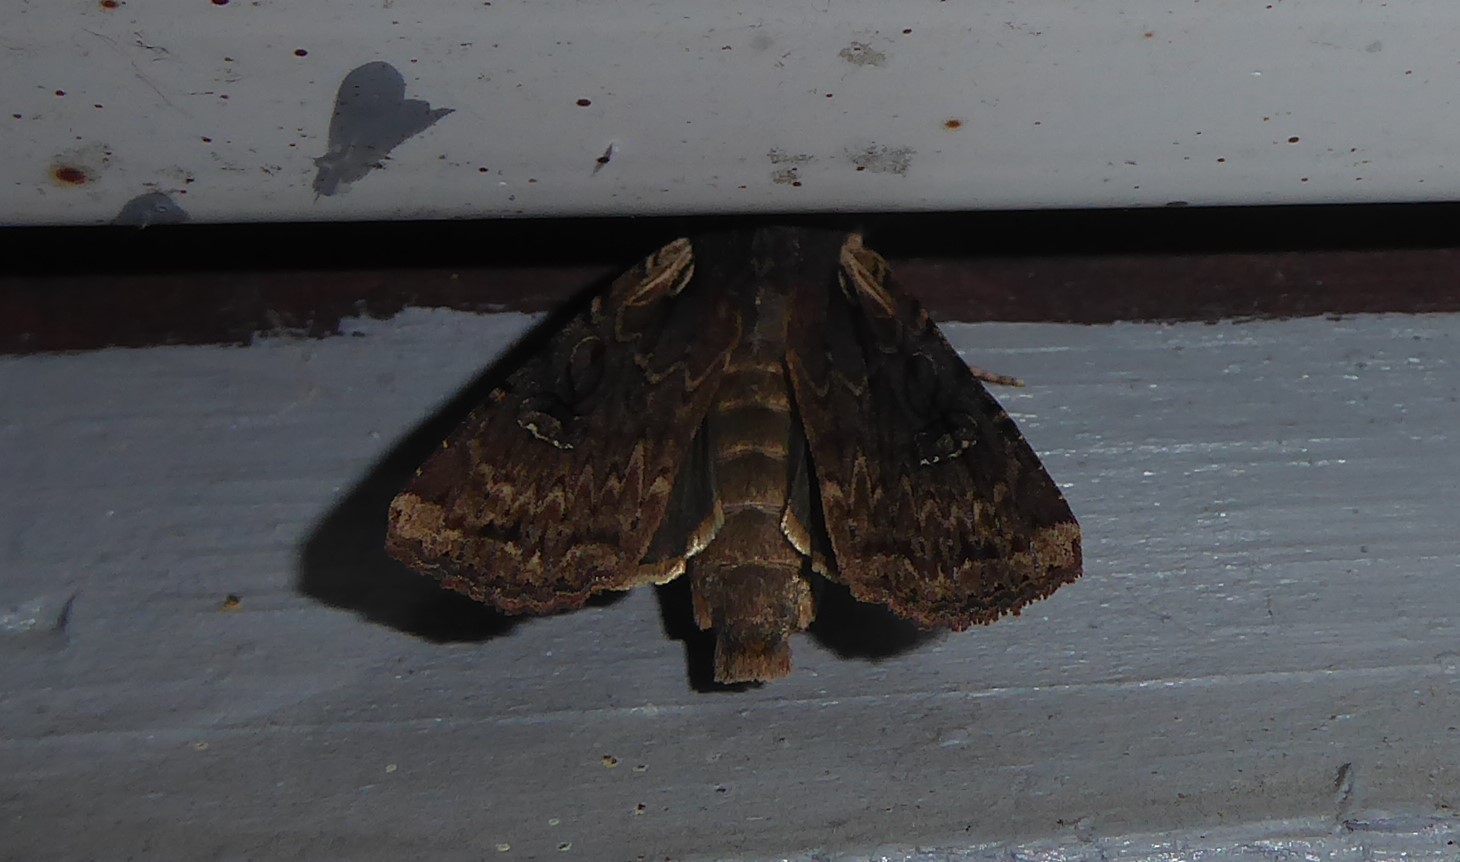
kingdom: Animalia
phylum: Arthropoda
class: Insecta
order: Lepidoptera
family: Noctuidae
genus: Ichneutica
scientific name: Ichneutica omoplaca
